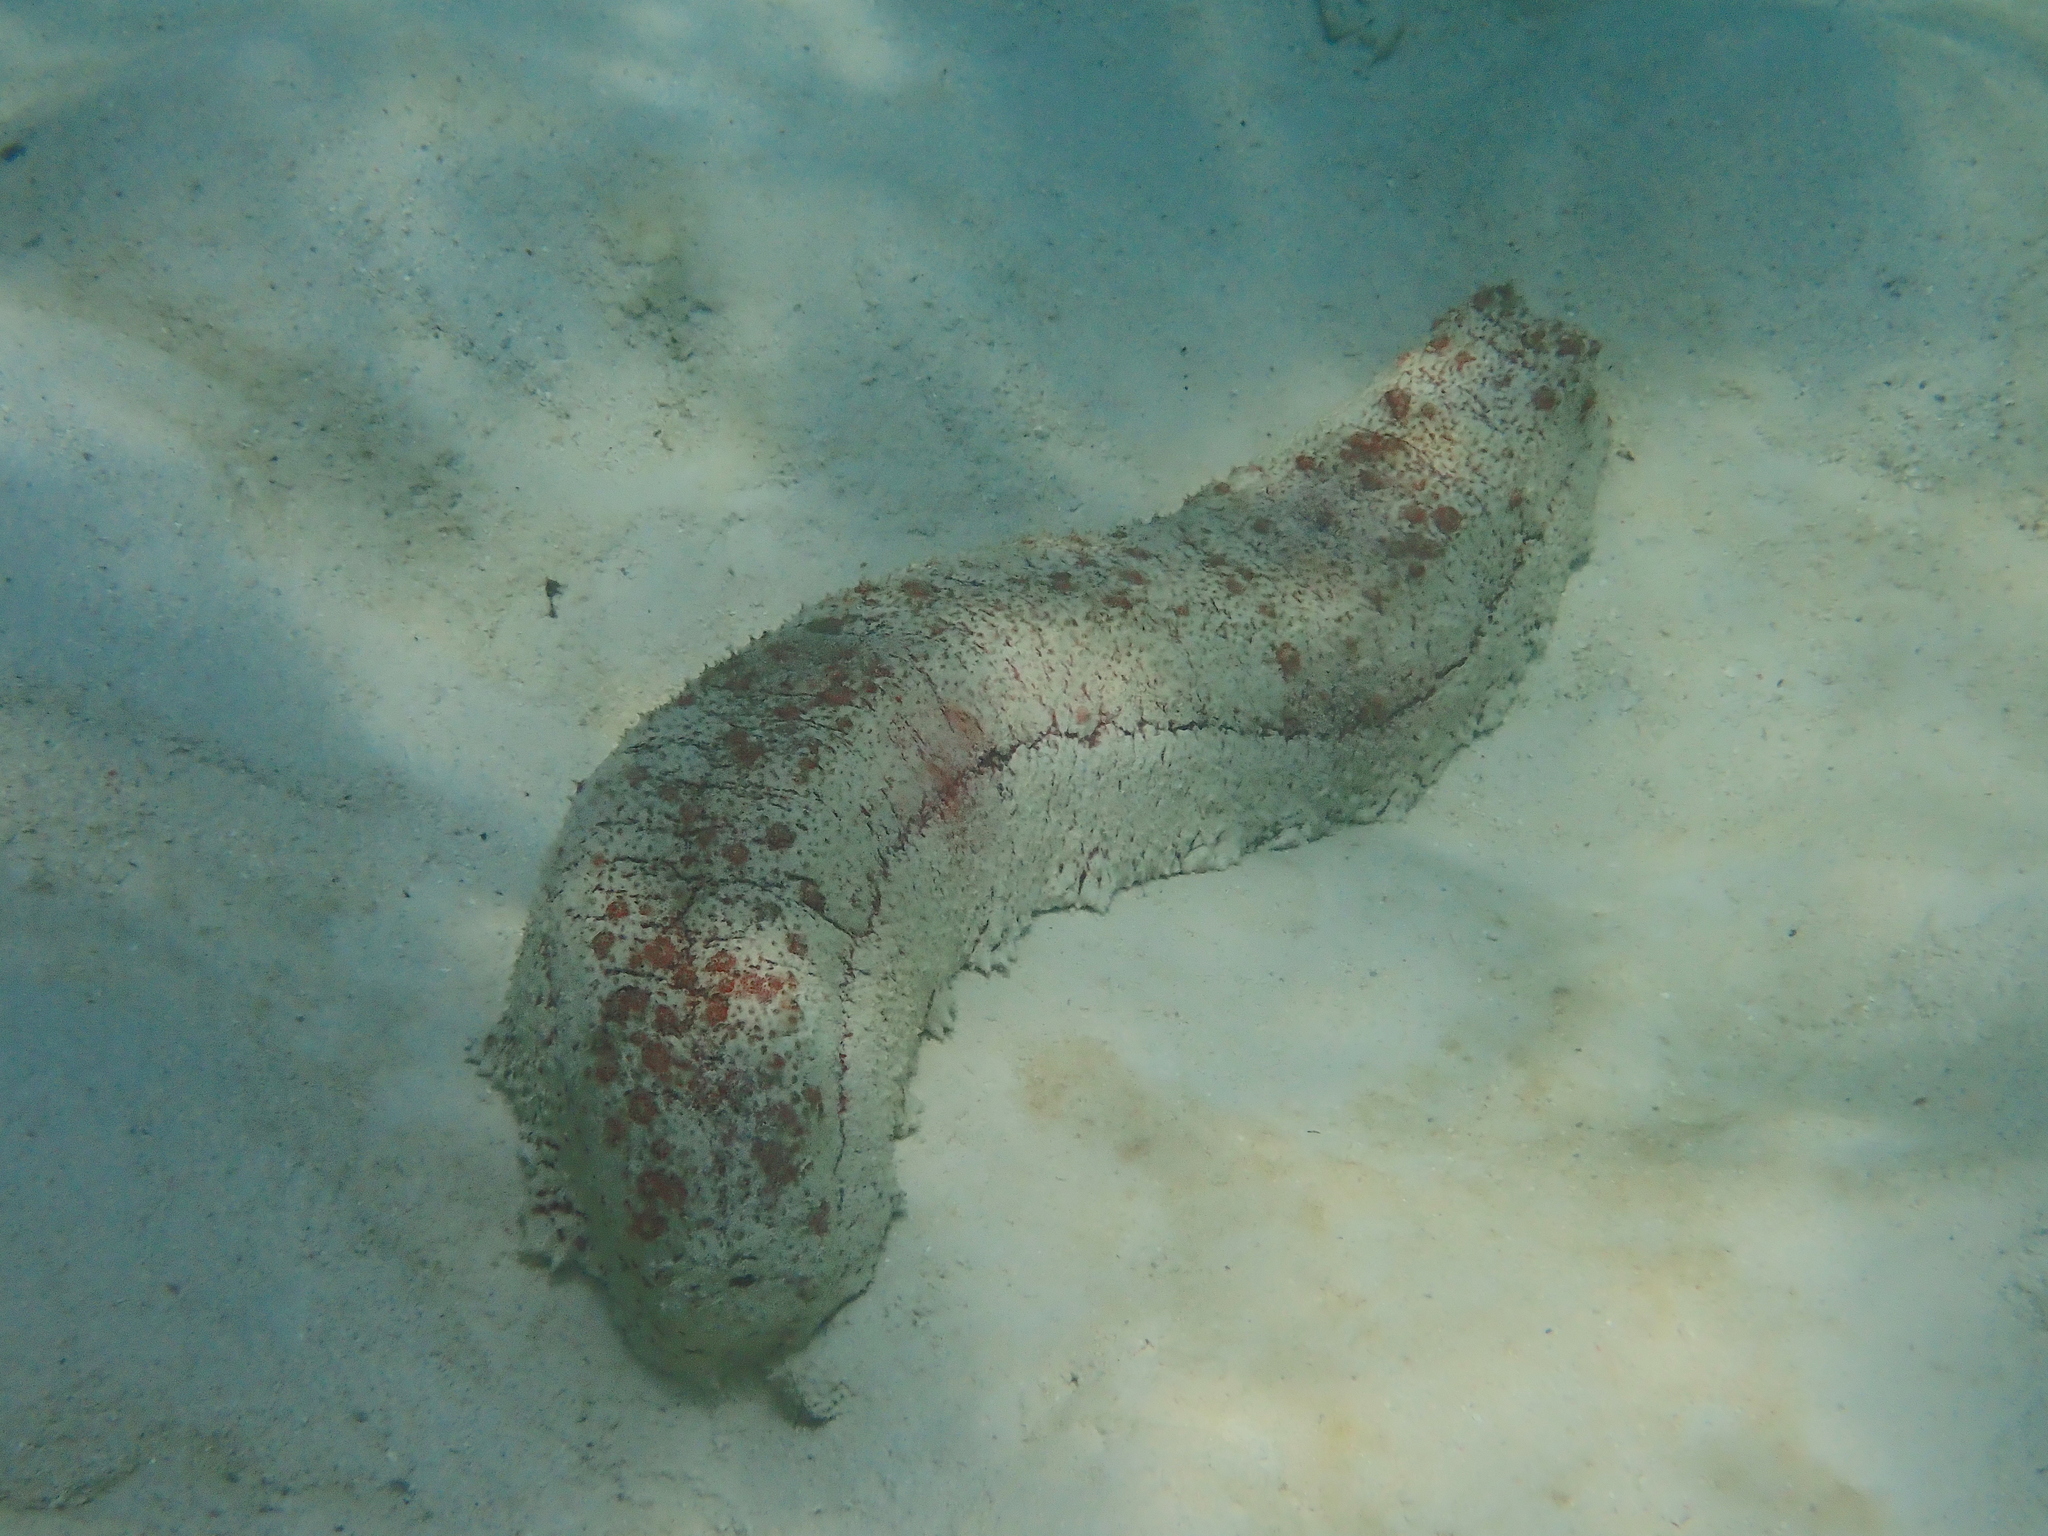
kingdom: Animalia
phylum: Echinodermata
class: Holothuroidea
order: Synallactida
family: Stichopodidae
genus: Thelenota
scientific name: Thelenota anax
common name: Amberfish
